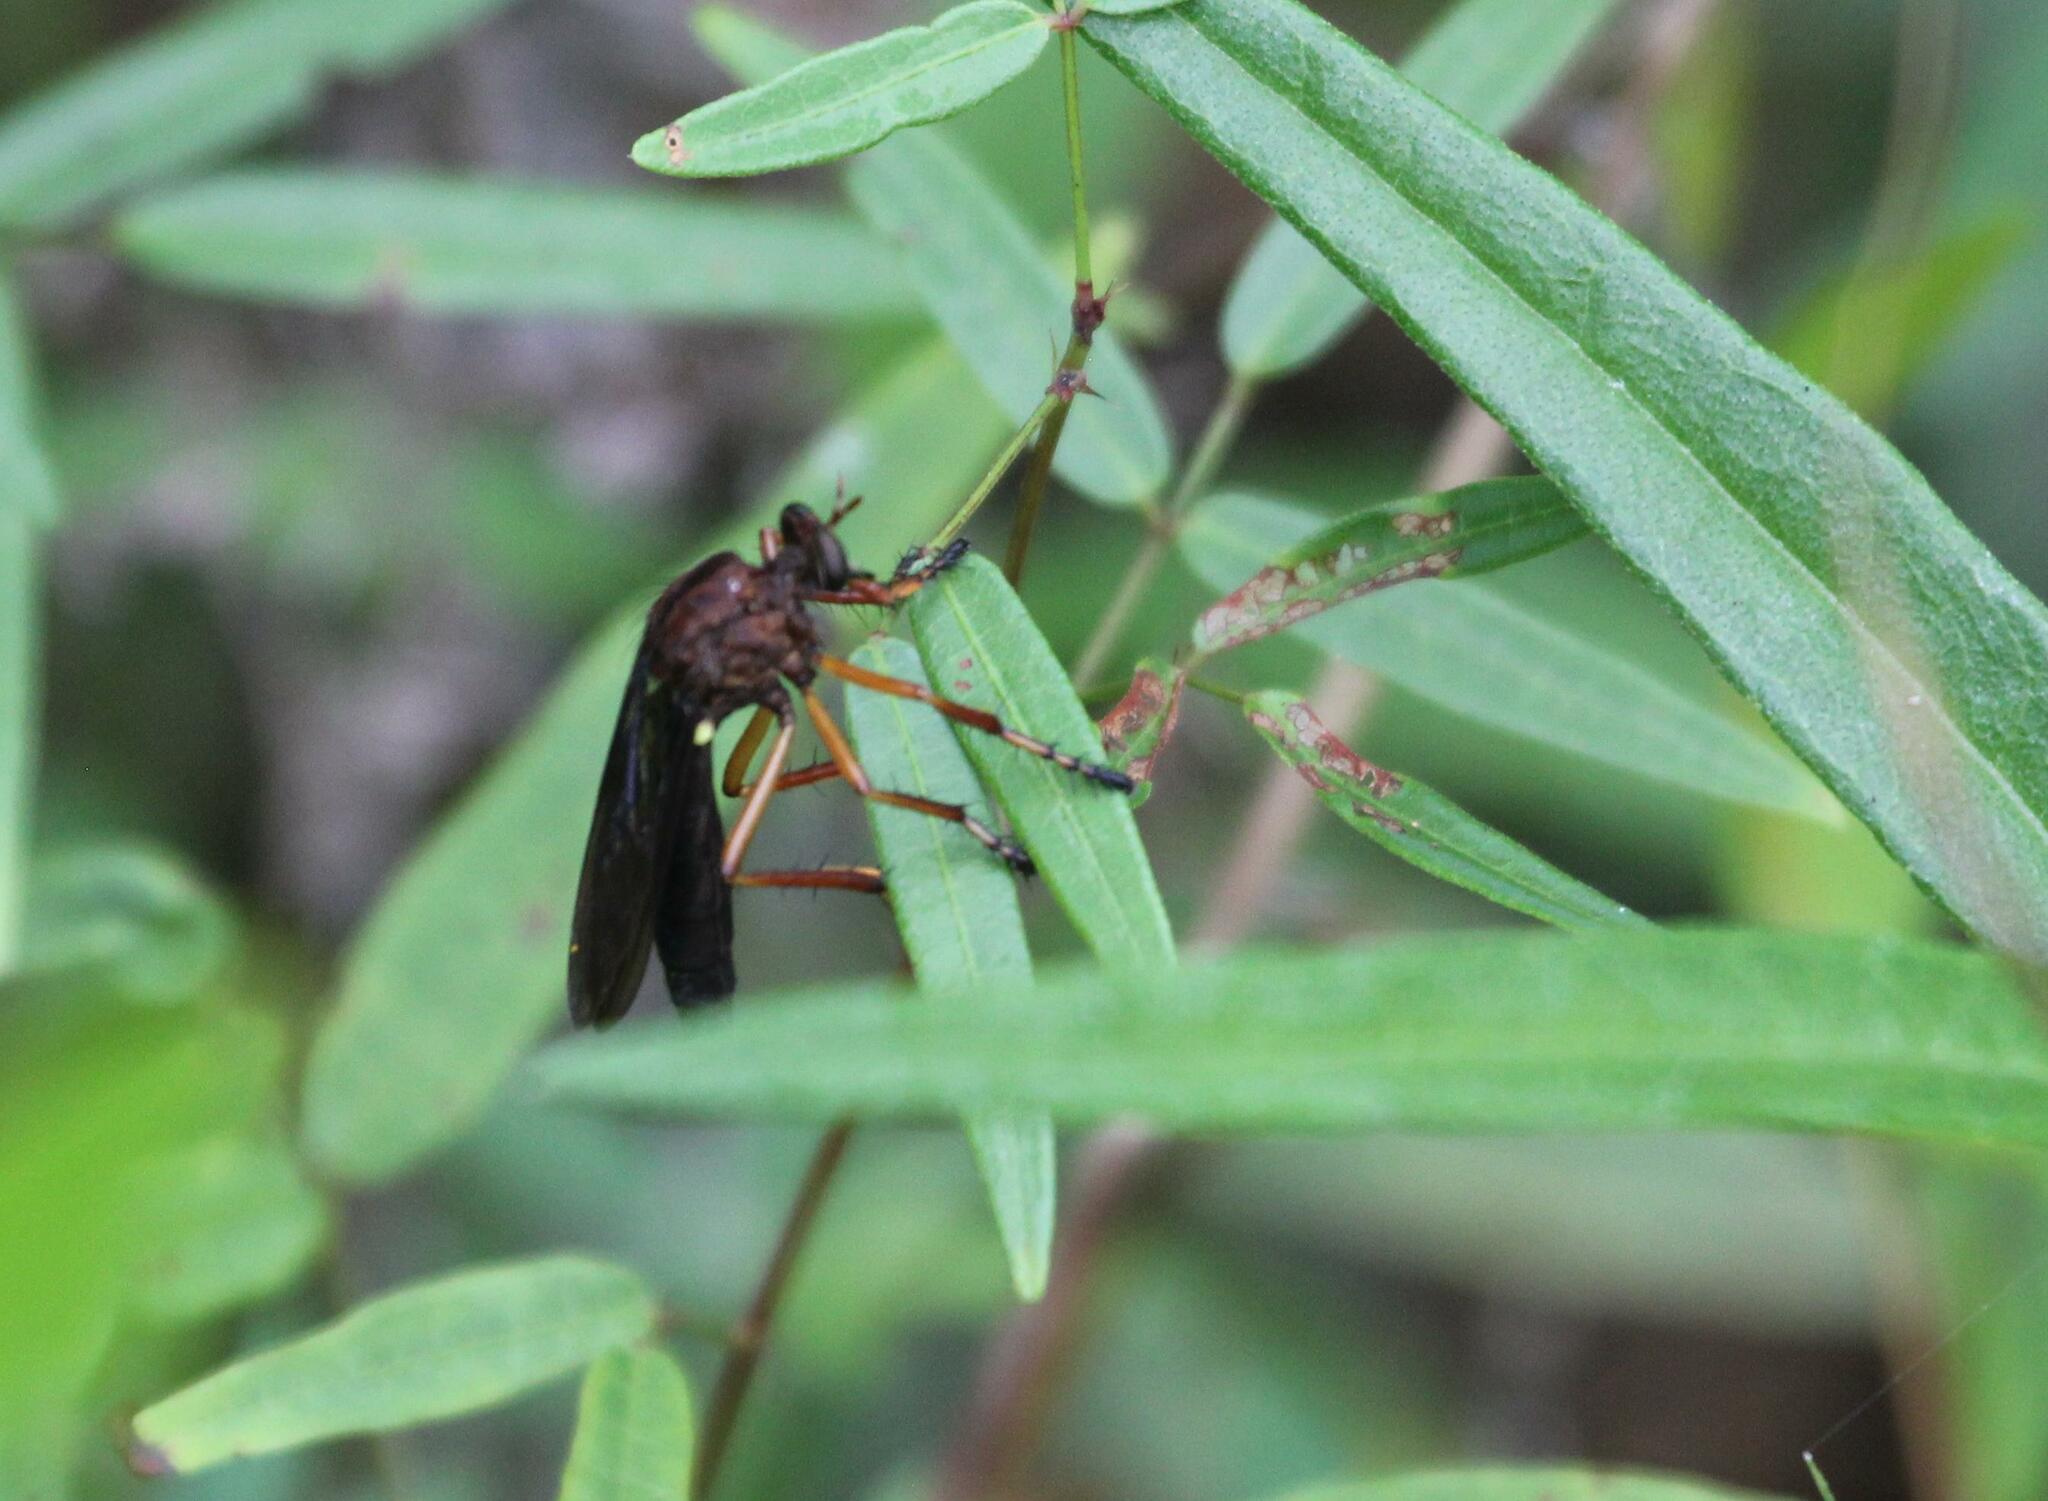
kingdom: Animalia
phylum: Arthropoda
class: Insecta
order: Diptera
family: Asilidae
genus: Diogmites
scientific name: Diogmites platypterus
